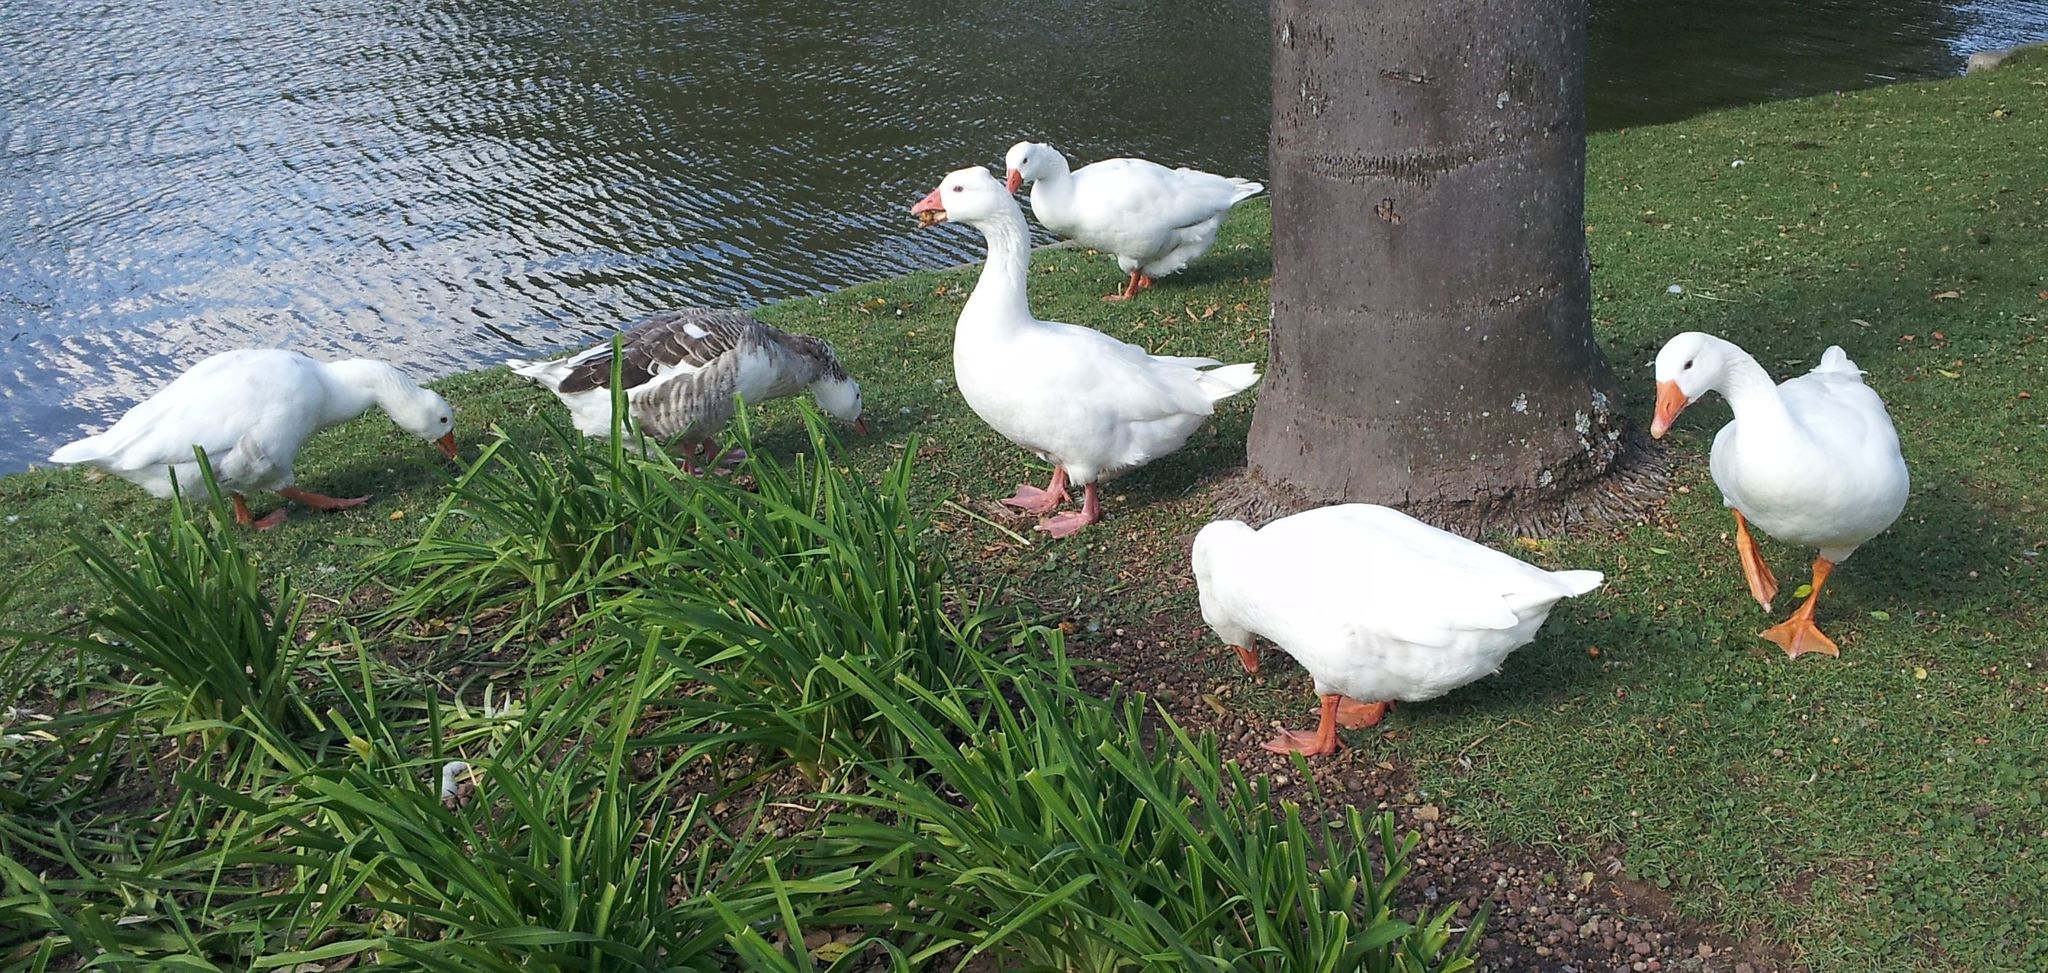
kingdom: Animalia
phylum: Chordata
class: Aves
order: Anseriformes
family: Anatidae
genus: Anser
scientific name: Anser anser
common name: Greylag goose
